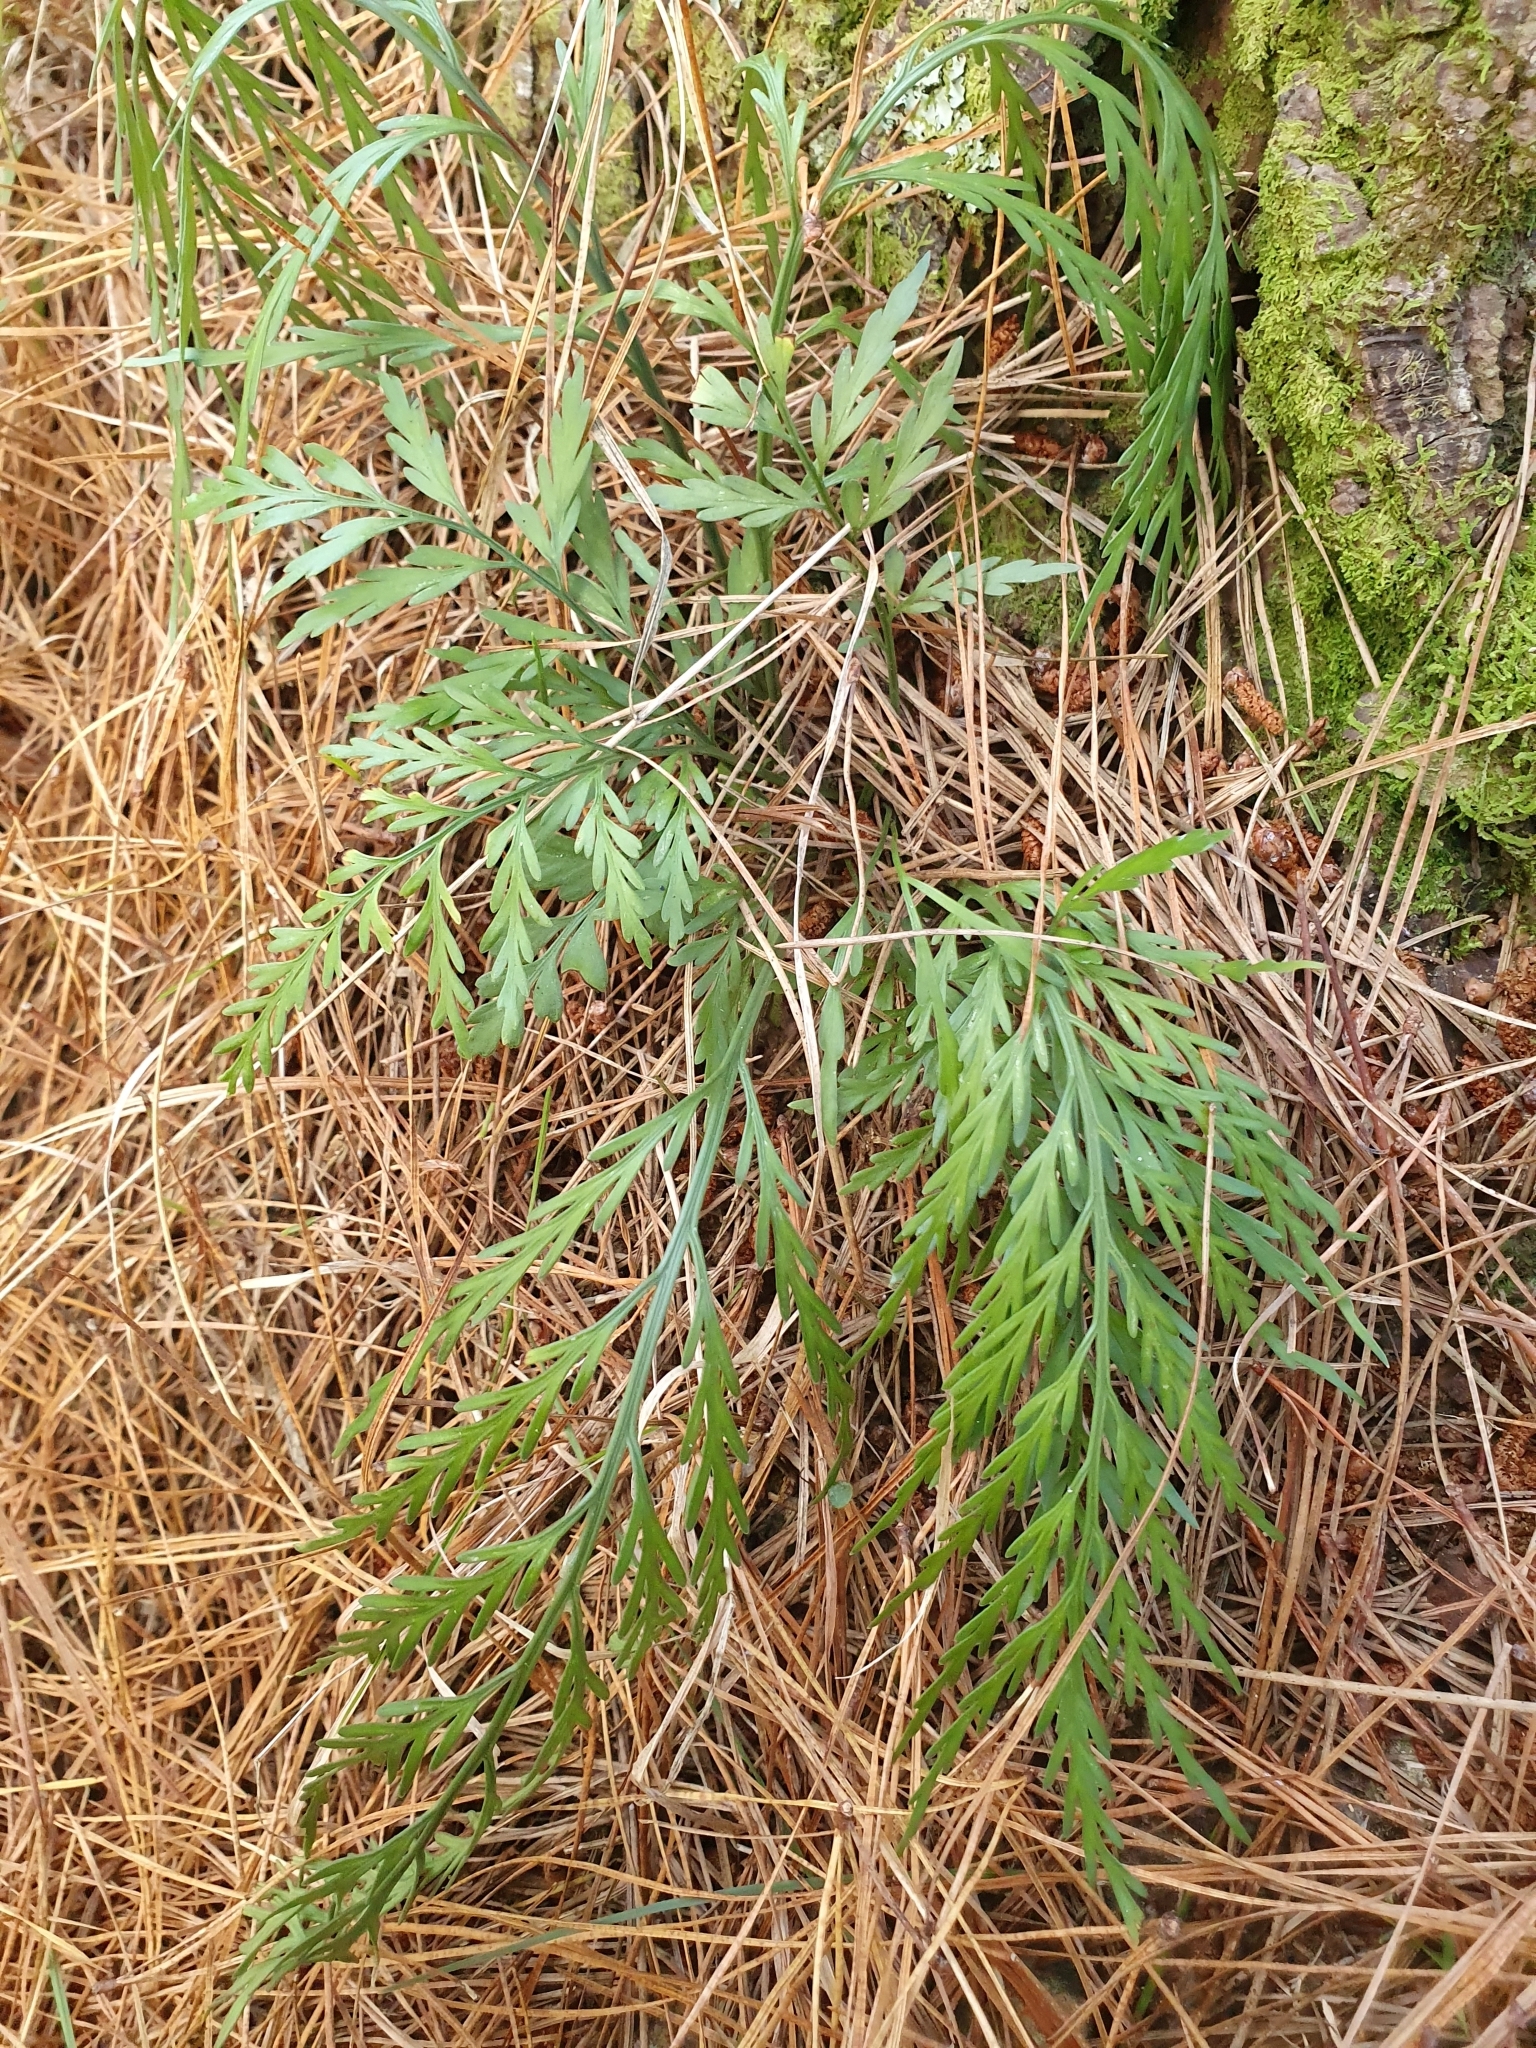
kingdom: Plantae
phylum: Tracheophyta
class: Polypodiopsida
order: Polypodiales
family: Aspleniaceae
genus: Asplenium
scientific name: Asplenium flaccidum
